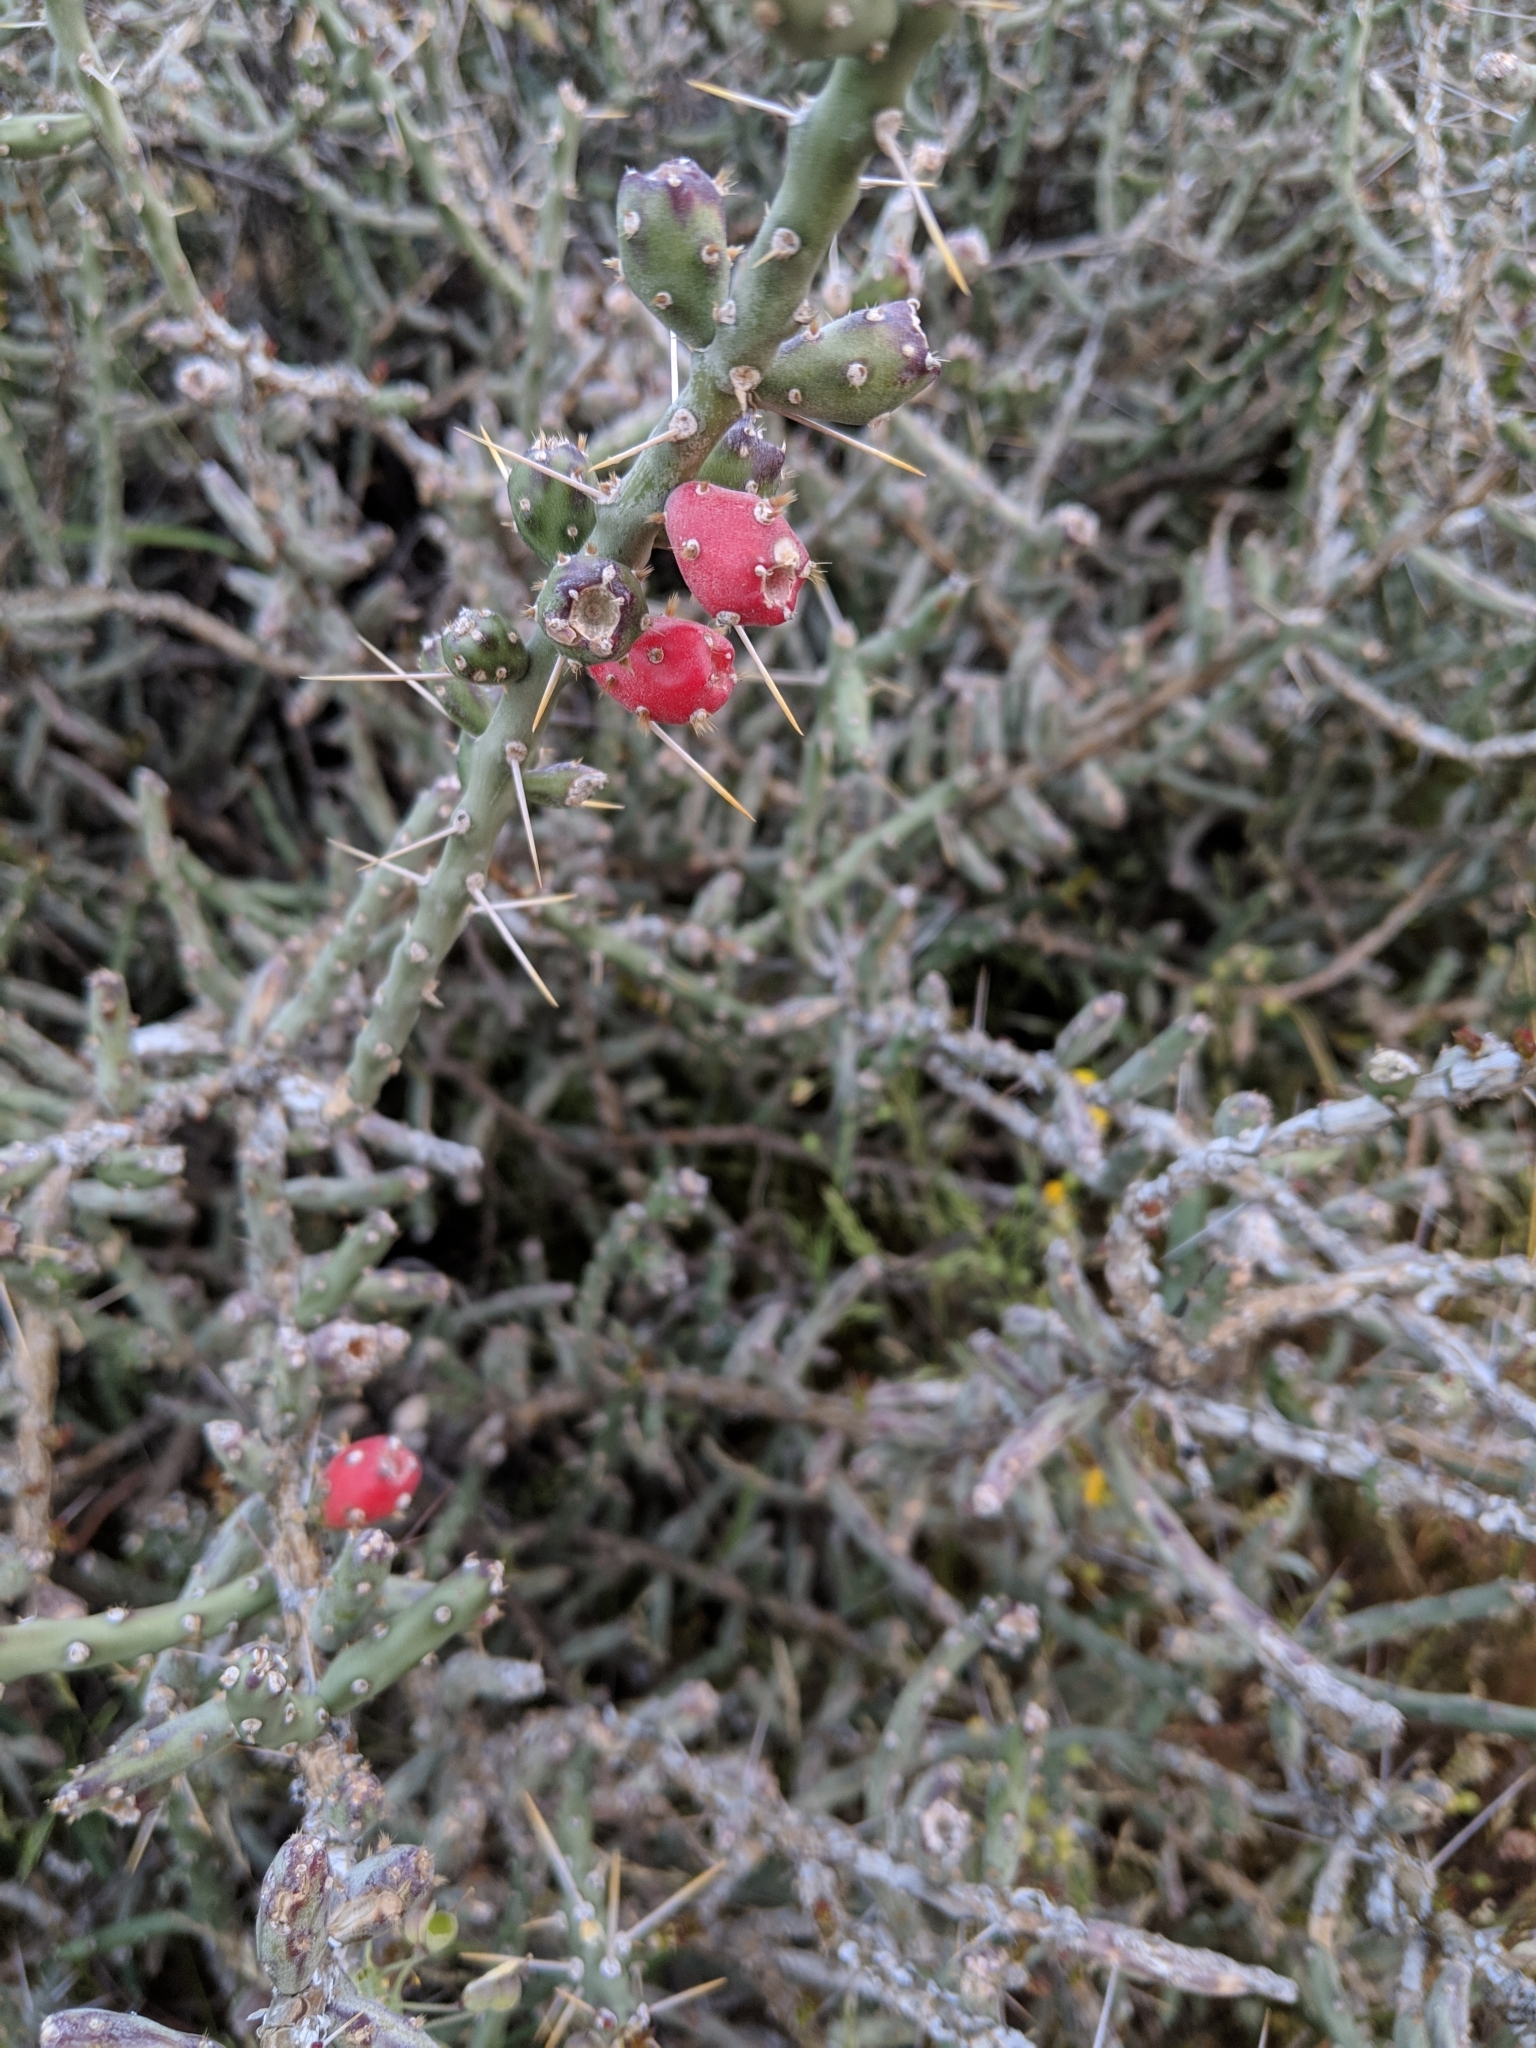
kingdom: Plantae
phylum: Tracheophyta
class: Magnoliopsida
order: Caryophyllales
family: Cactaceae
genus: Cylindropuntia
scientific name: Cylindropuntia leptocaulis
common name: Christmas cactus
